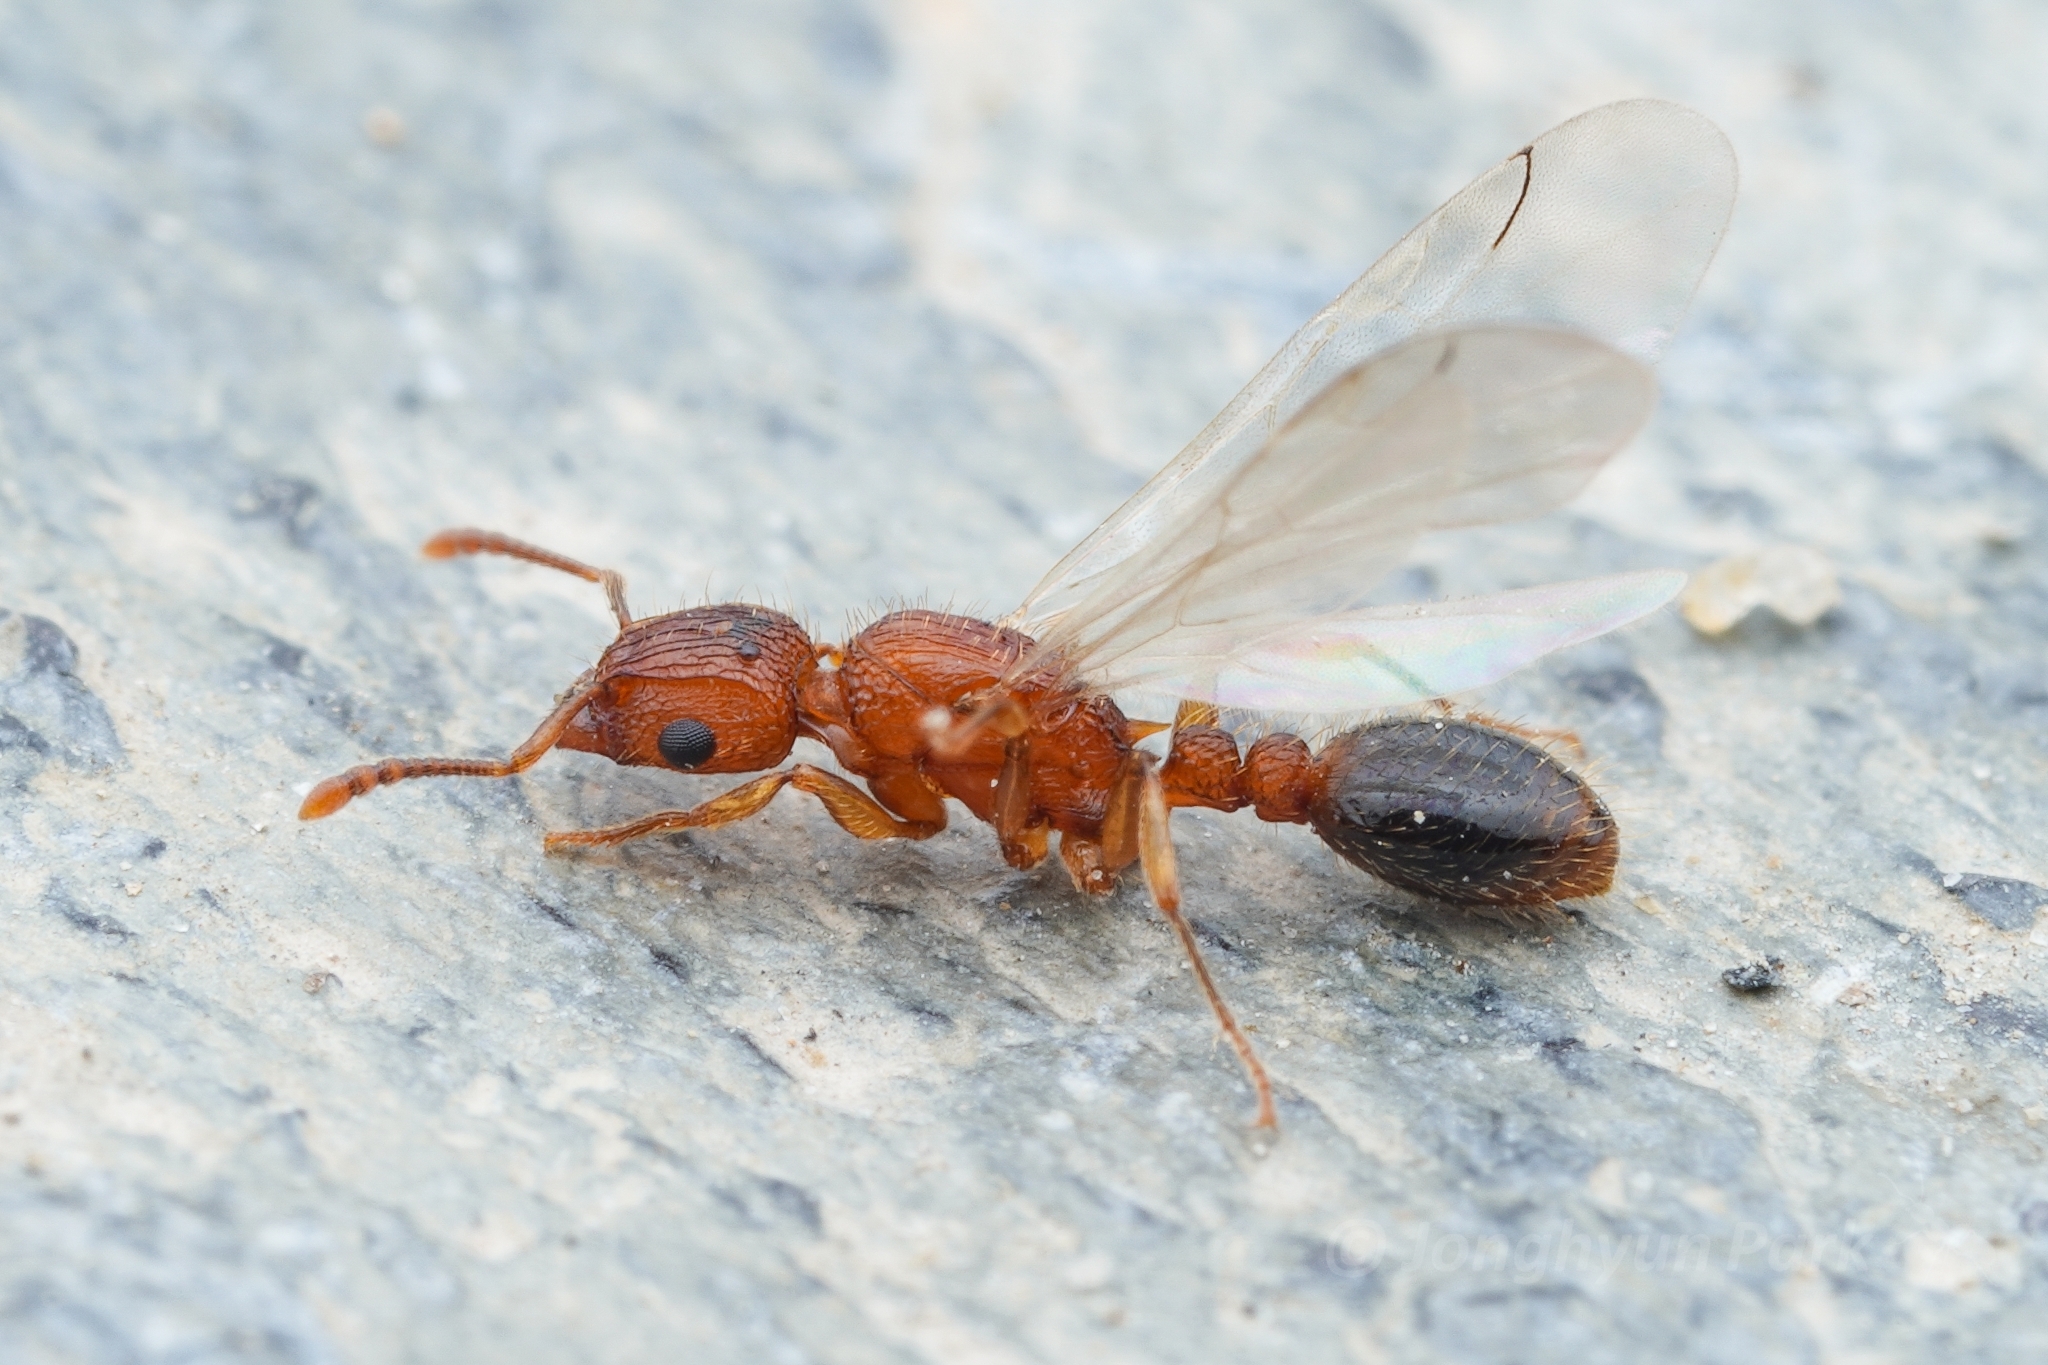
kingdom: Animalia
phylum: Arthropoda
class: Insecta
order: Hymenoptera
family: Formicidae
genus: Tetramorium
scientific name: Tetramorium bicarinatum
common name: Guinea ant
